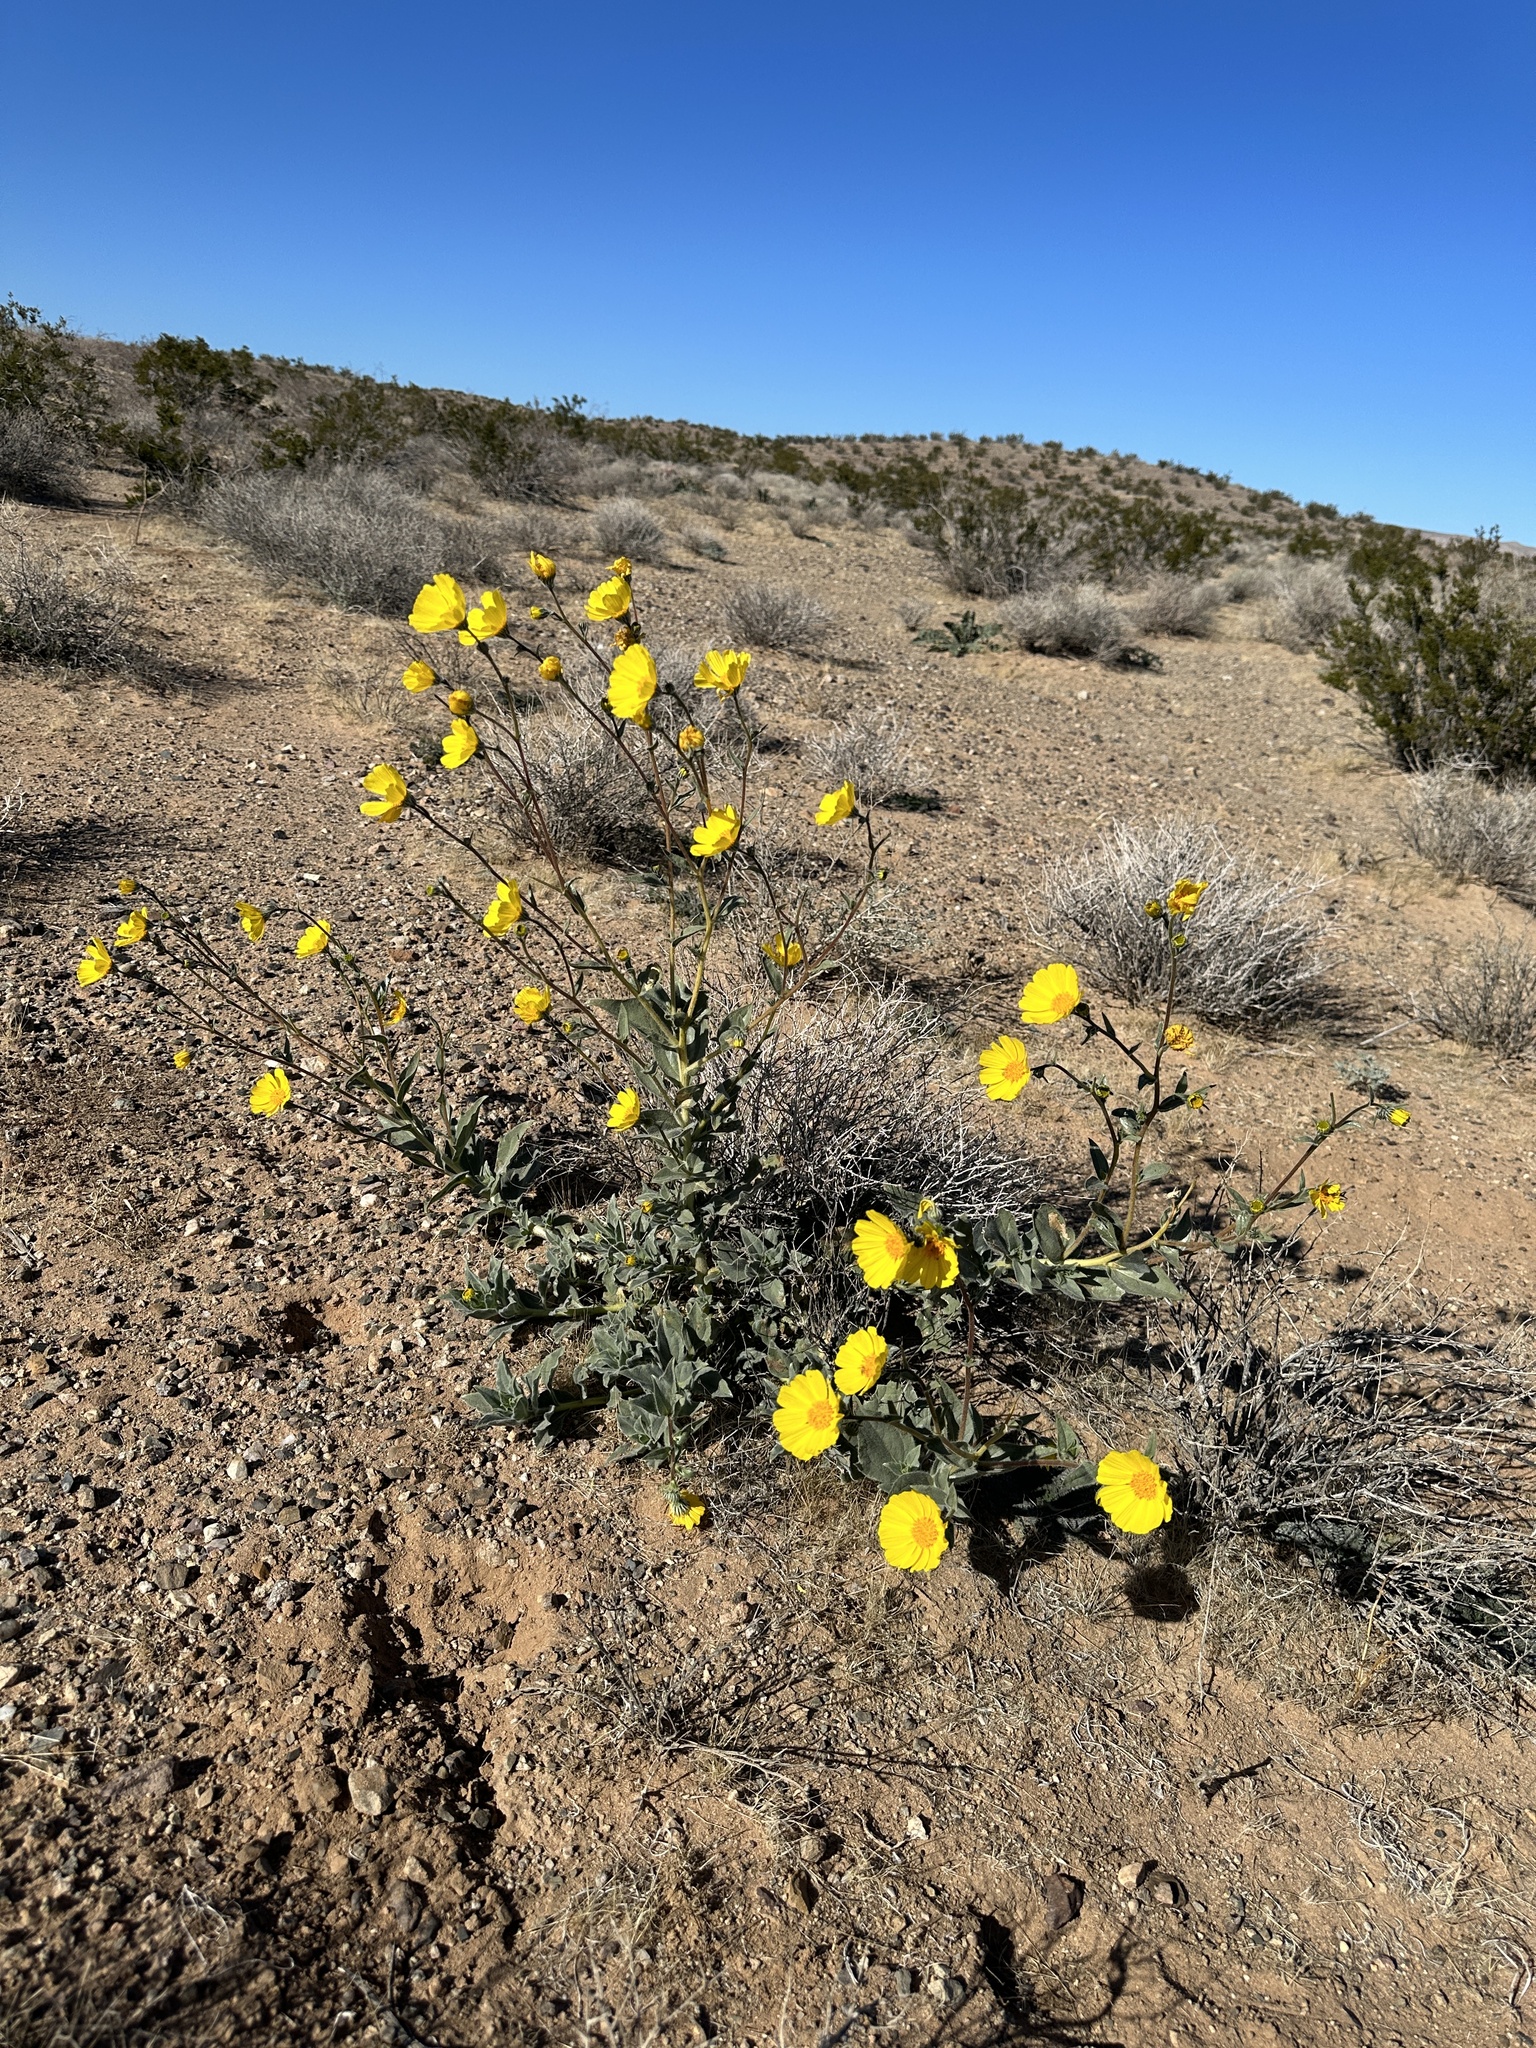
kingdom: Plantae
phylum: Tracheophyta
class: Magnoliopsida
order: Asterales
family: Asteraceae
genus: Geraea
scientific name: Geraea canescens
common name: Desert-gold
